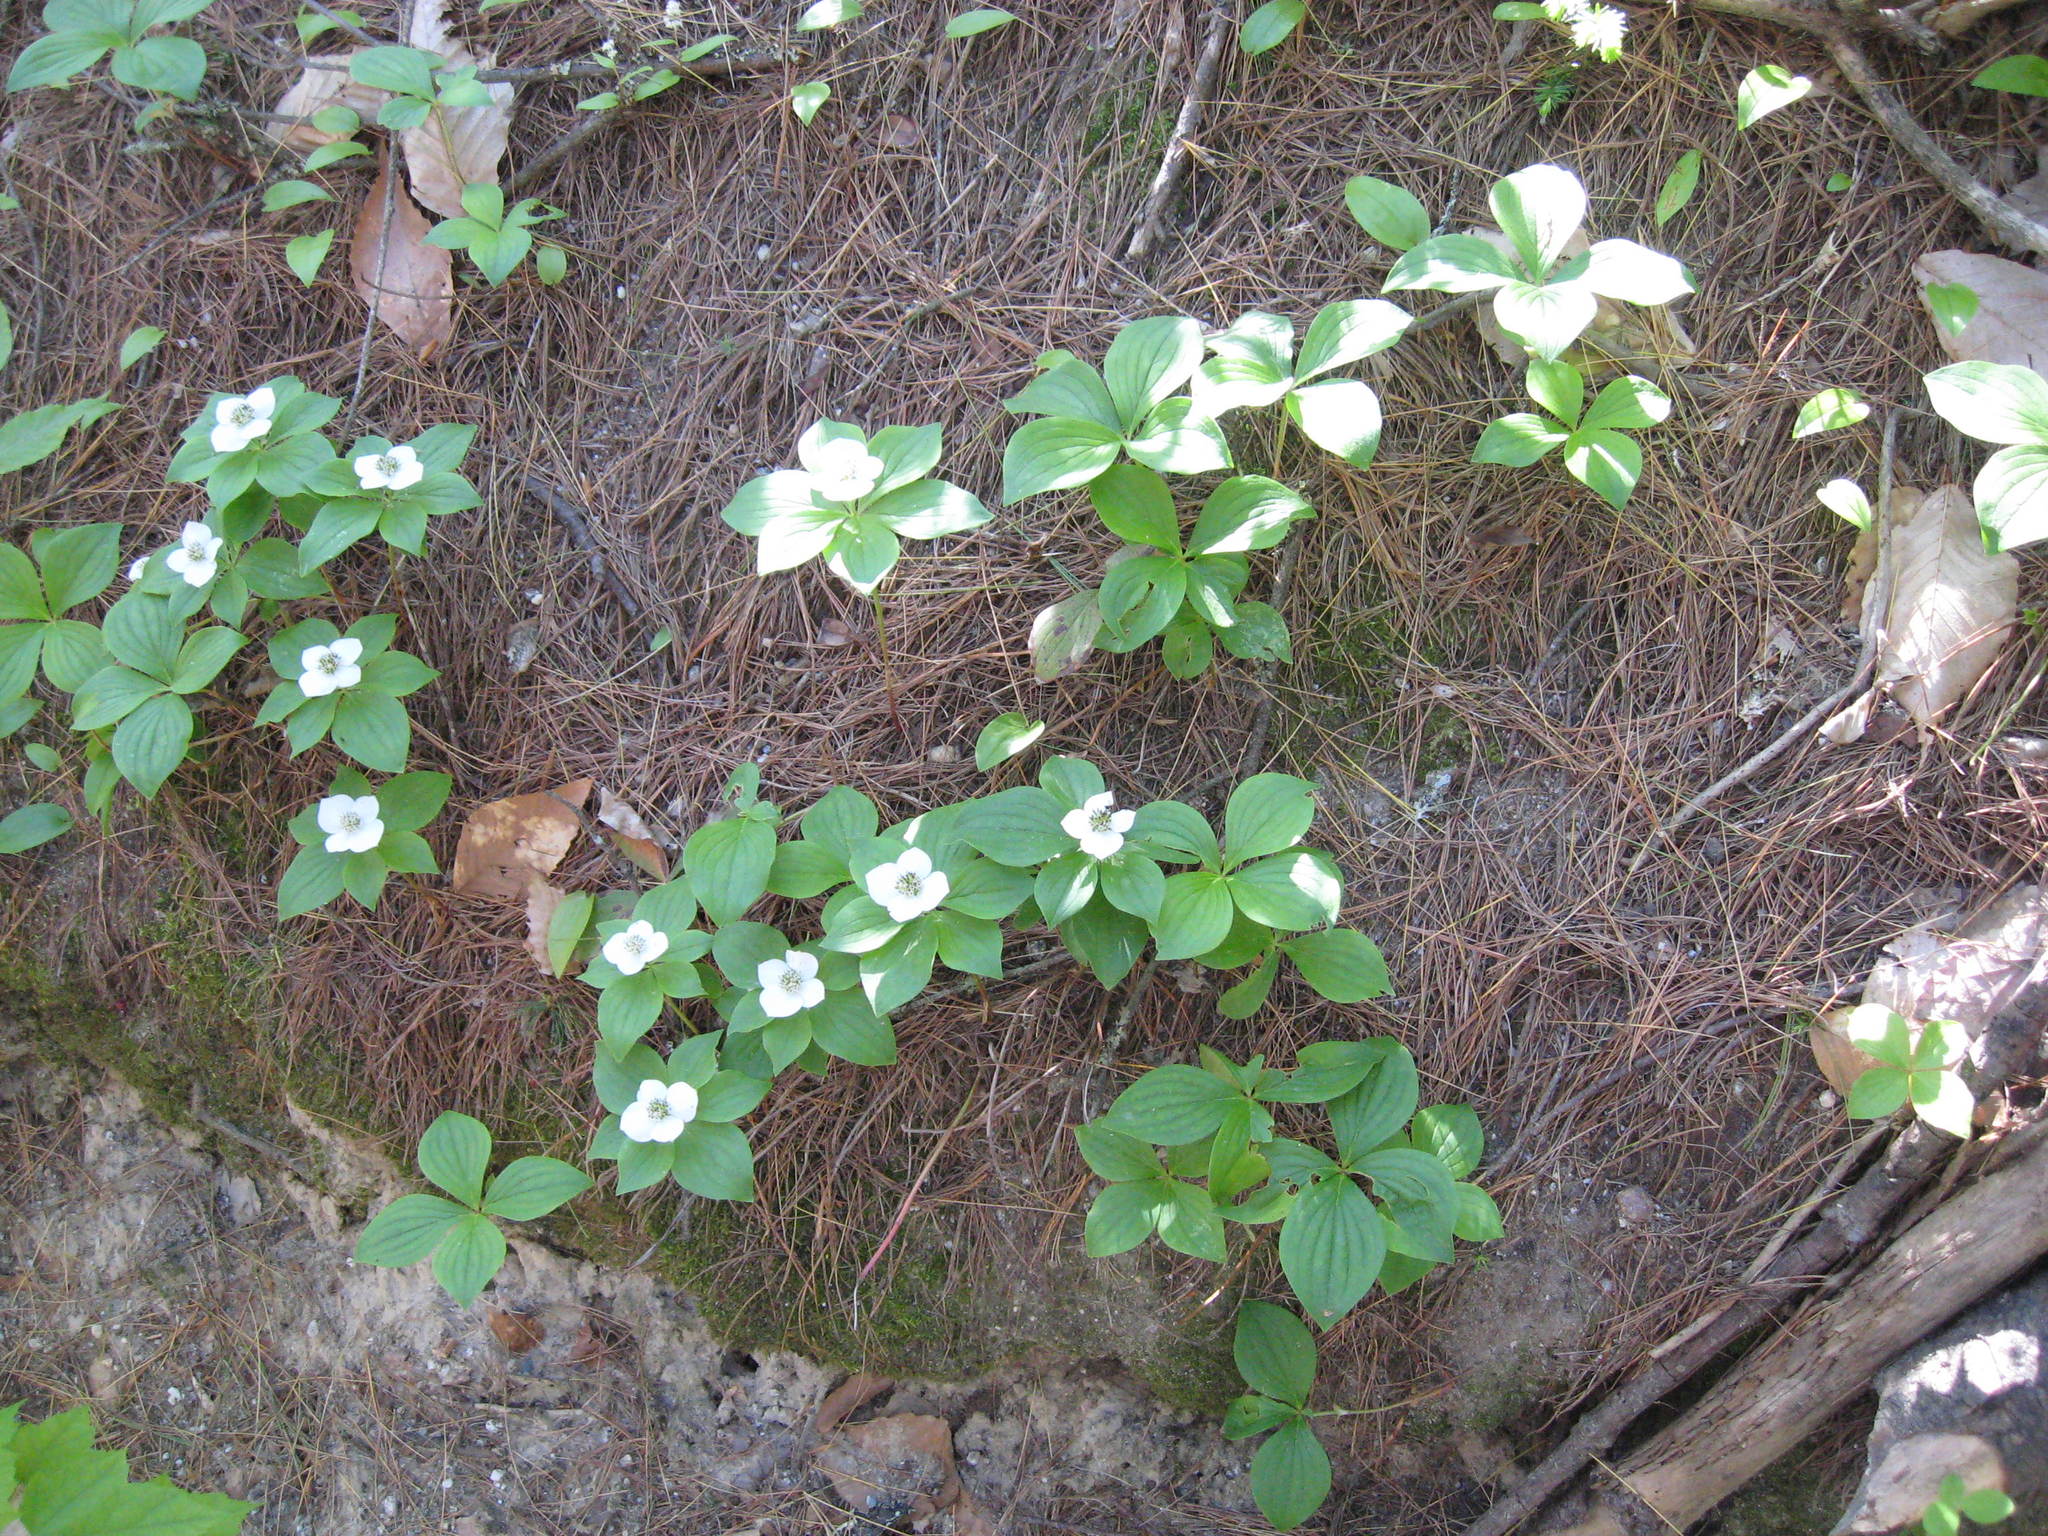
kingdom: Plantae
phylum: Tracheophyta
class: Magnoliopsida
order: Cornales
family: Cornaceae
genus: Cornus
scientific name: Cornus canadensis
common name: Creeping dogwood
